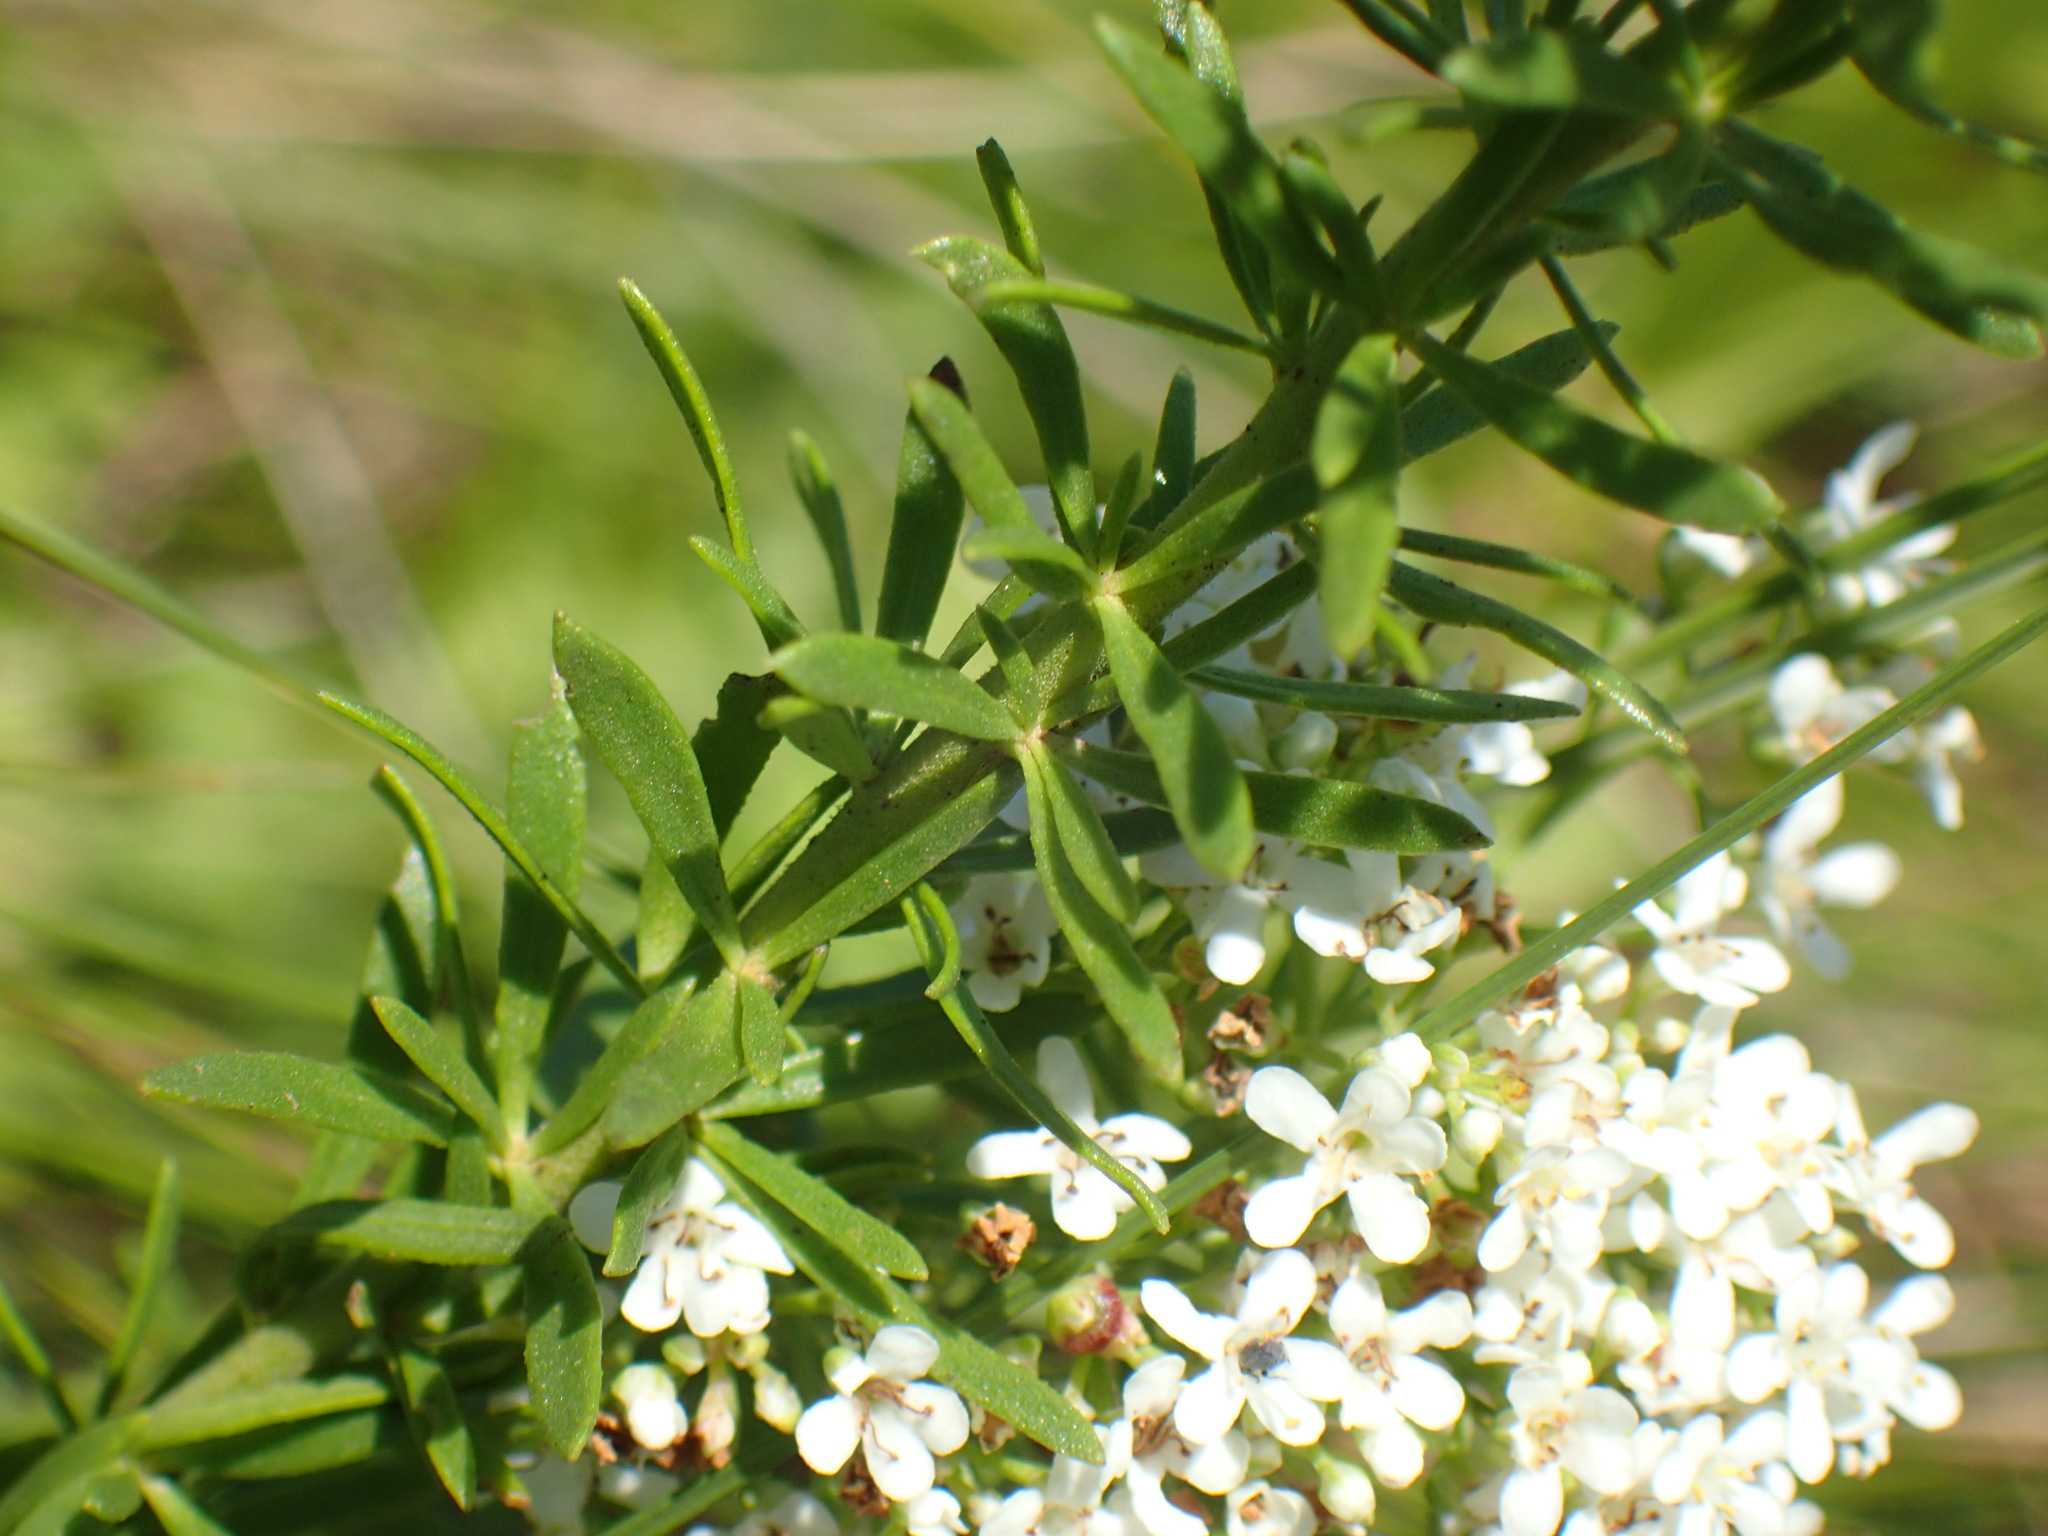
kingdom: Plantae
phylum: Tracheophyta
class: Magnoliopsida
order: Lamiales
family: Scrophulariaceae
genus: Selago
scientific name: Selago tarachodes
